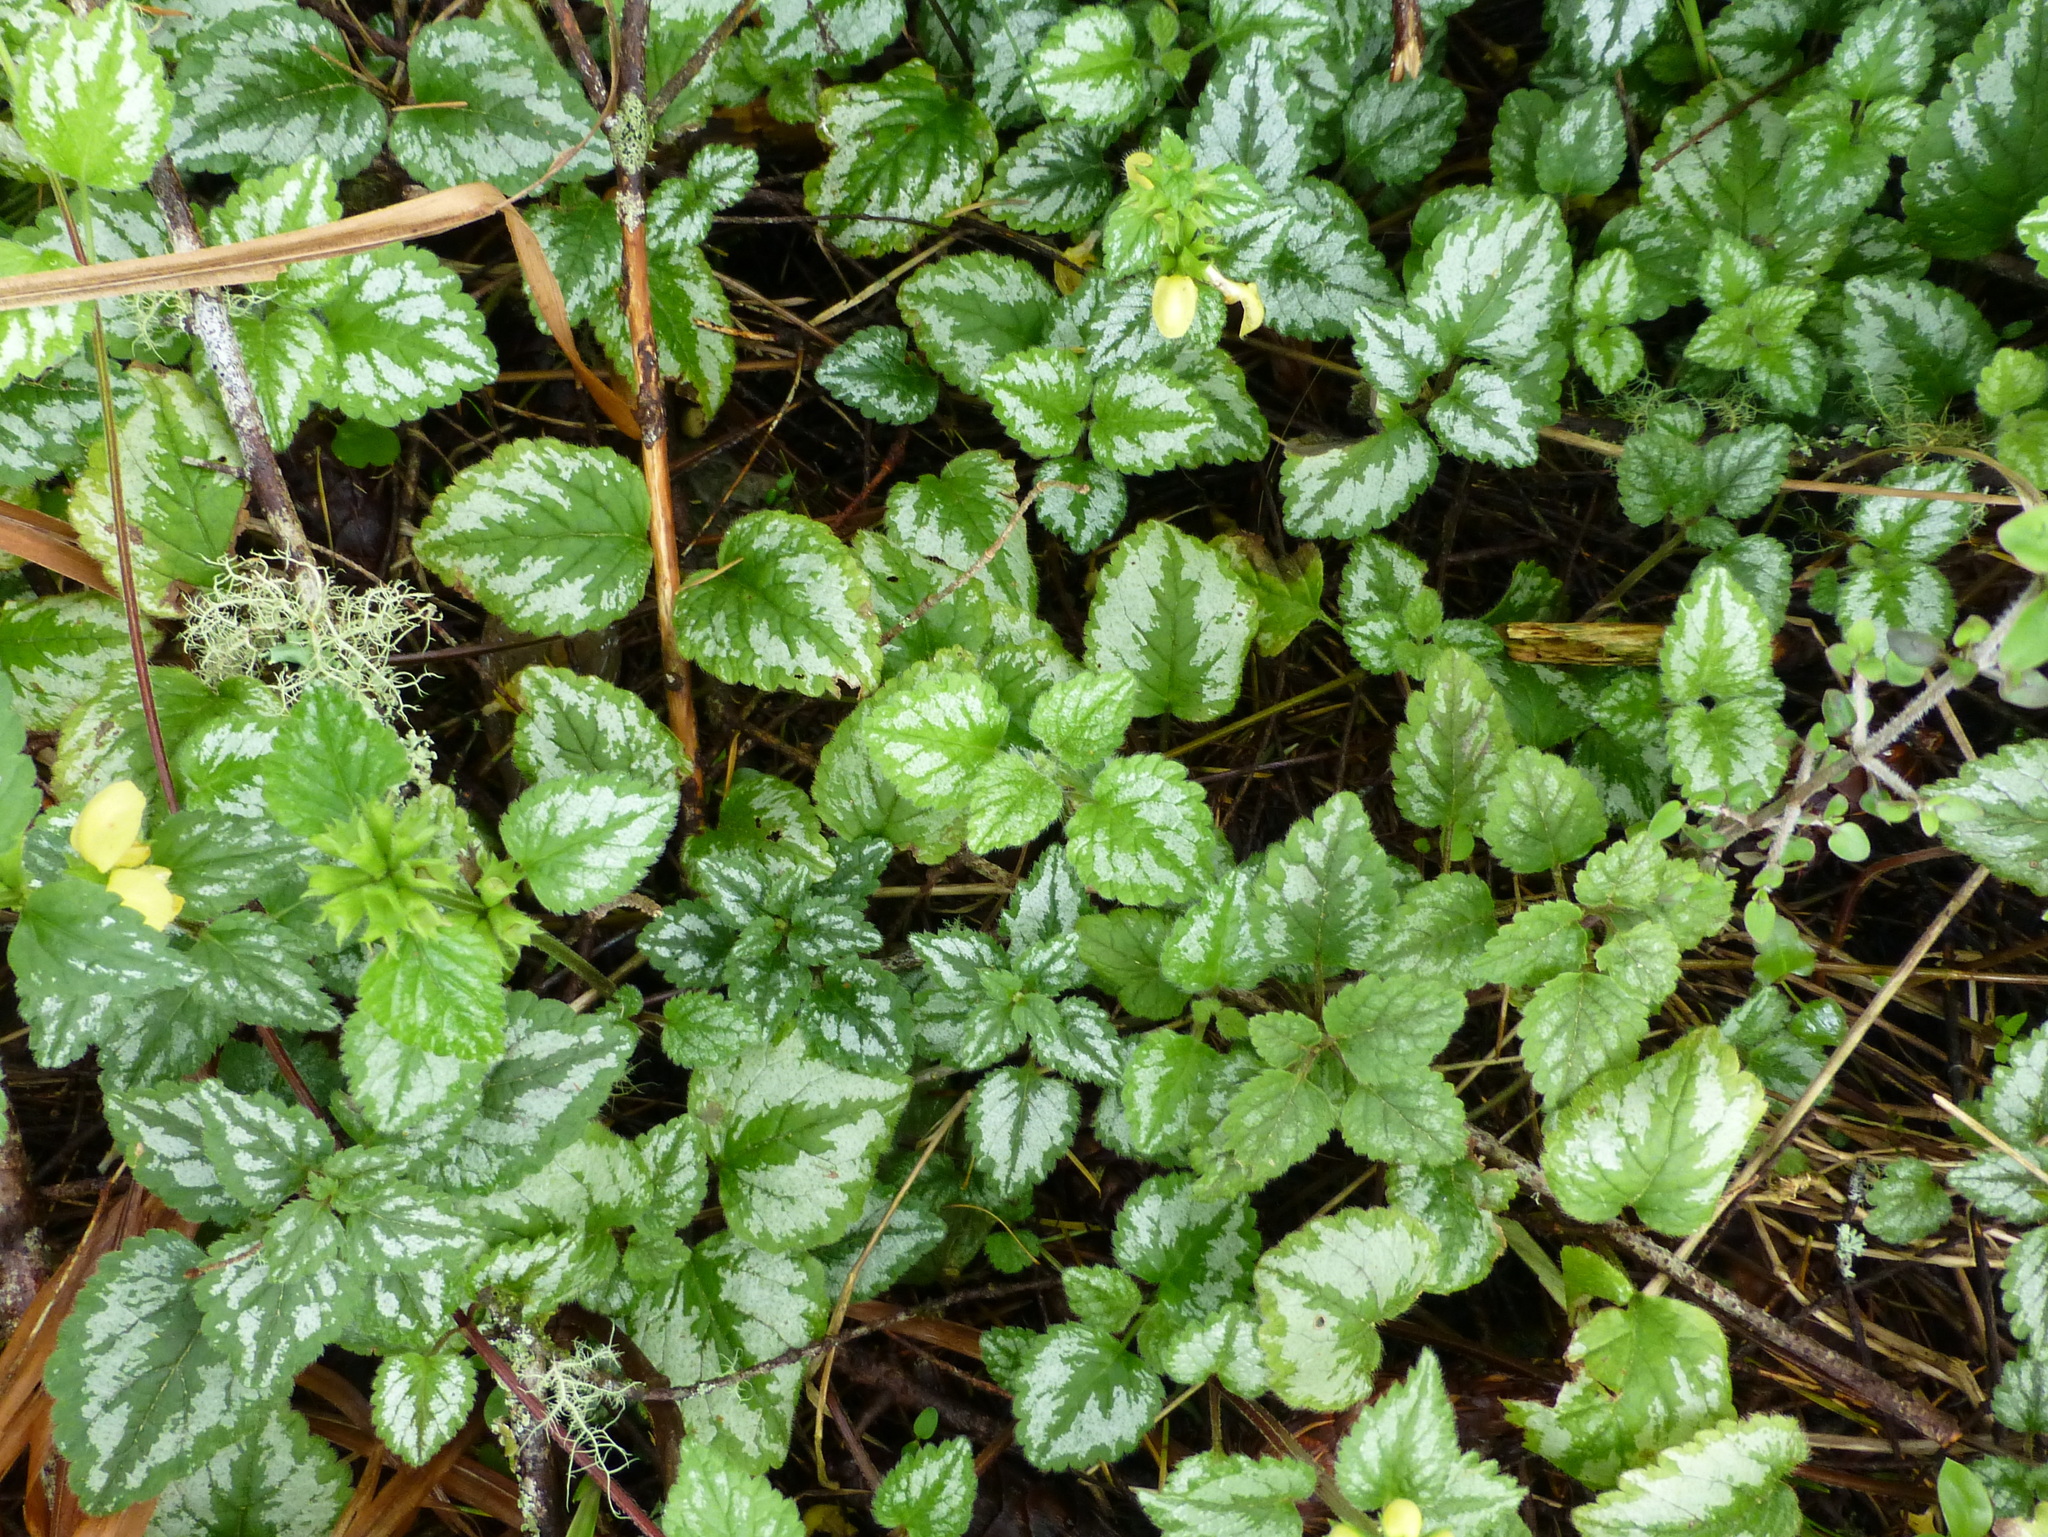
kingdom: Plantae
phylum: Tracheophyta
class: Magnoliopsida
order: Lamiales
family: Lamiaceae
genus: Lamium
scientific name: Lamium galeobdolon
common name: Yellow archangel
